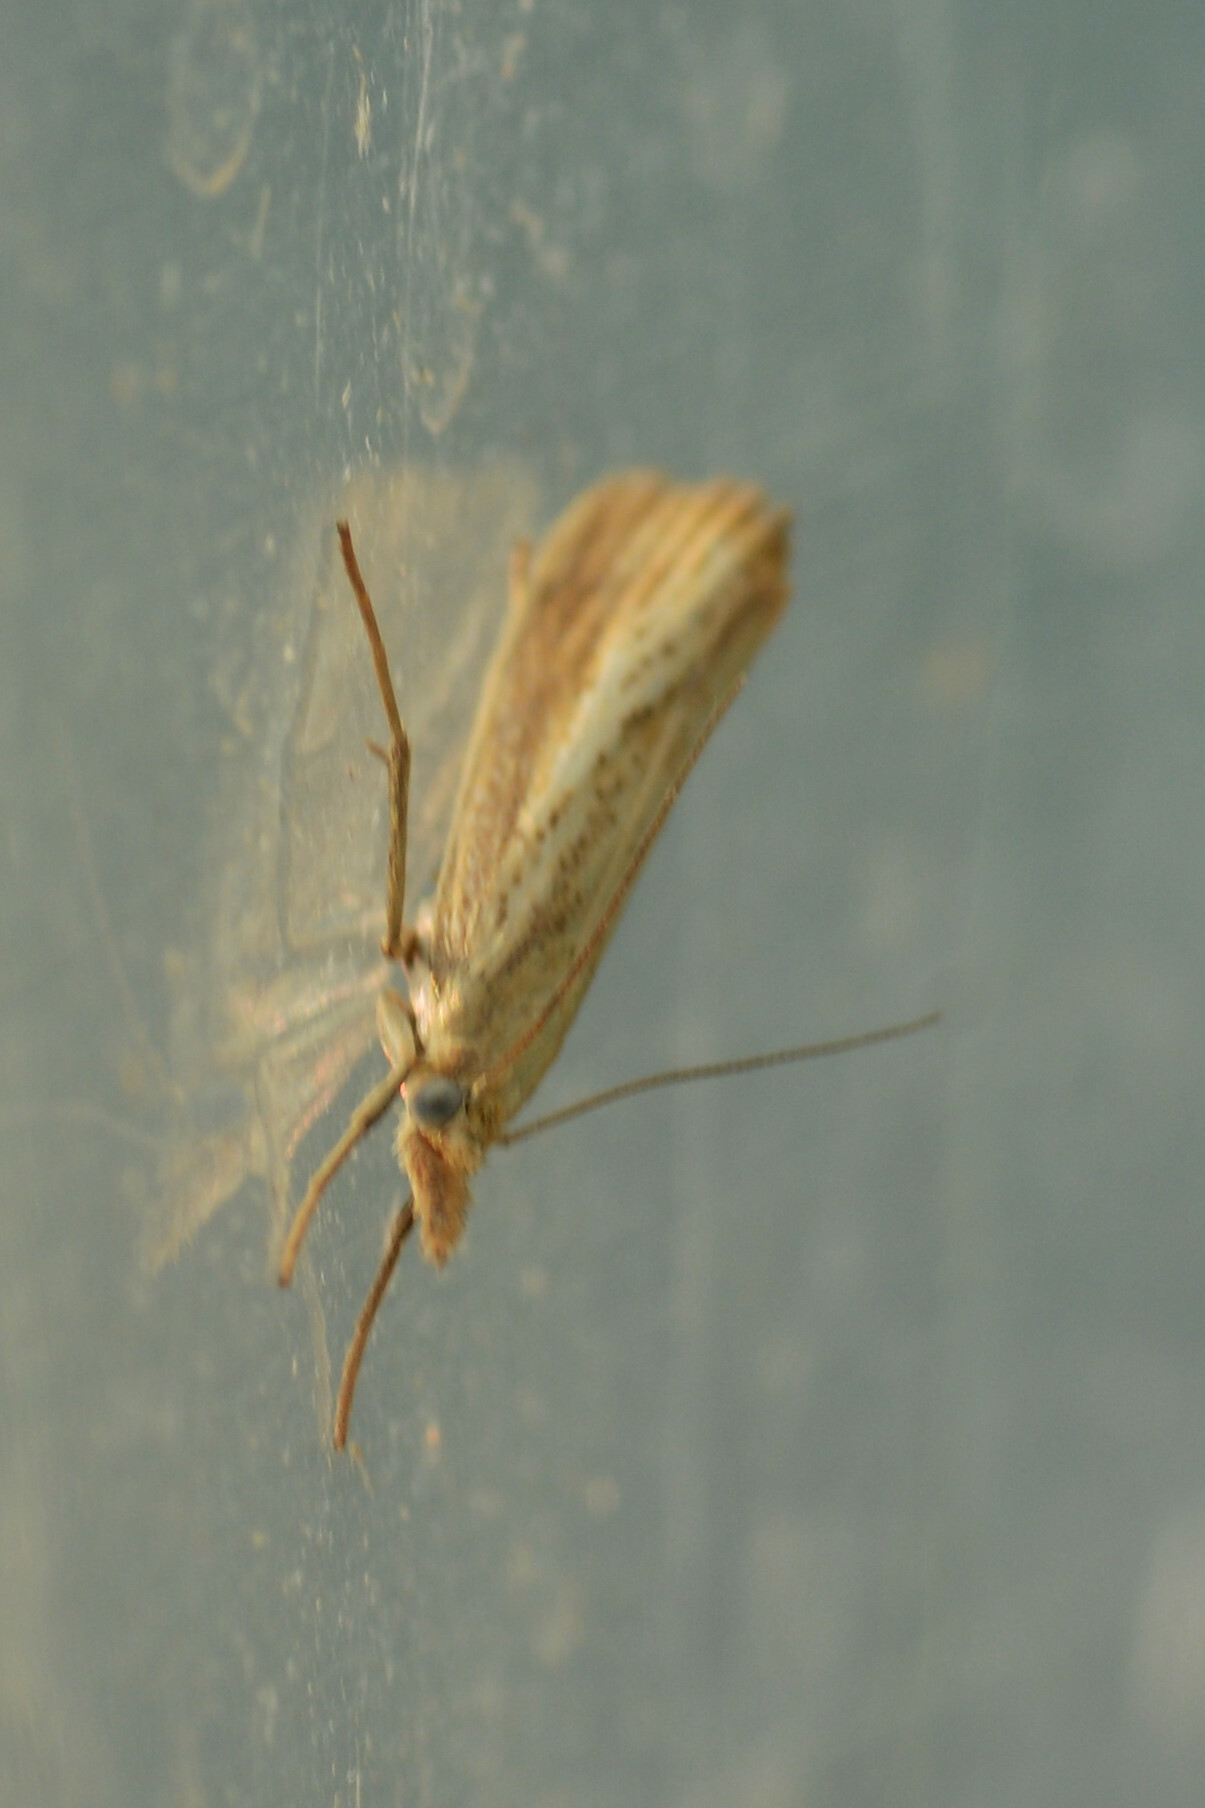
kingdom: Animalia
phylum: Arthropoda
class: Insecta
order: Lepidoptera
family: Crambidae
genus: Agriphila
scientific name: Agriphila straminella
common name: Straw grass-veneer
